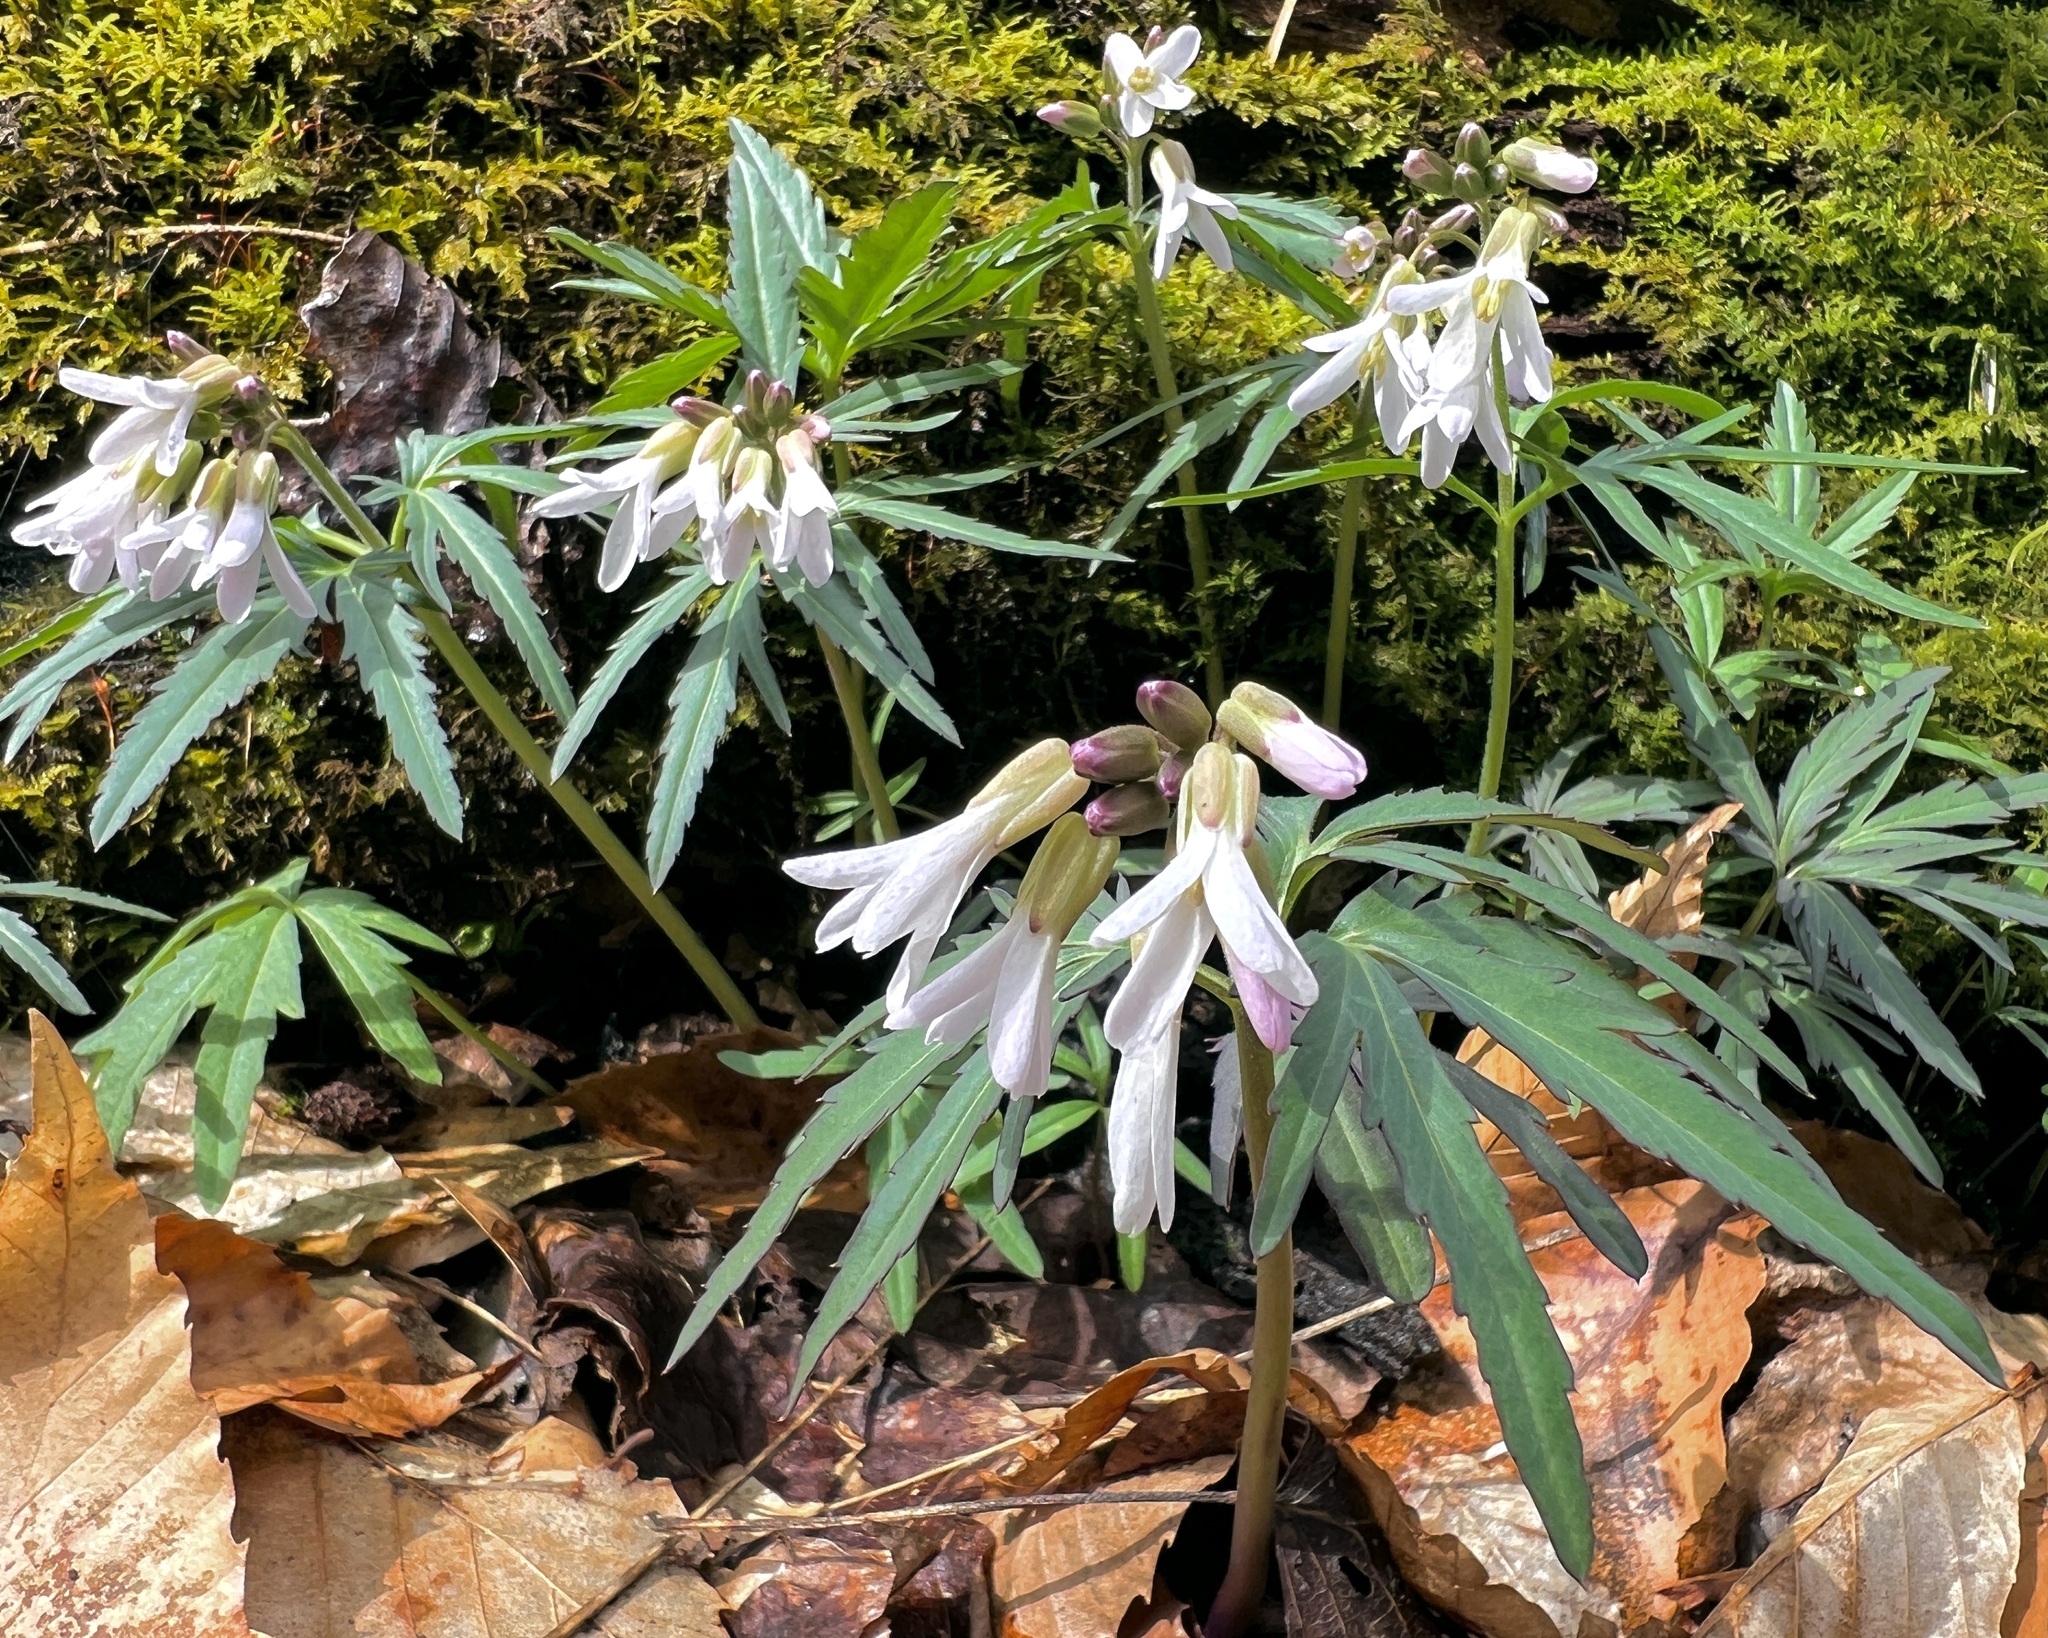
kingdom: Plantae
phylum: Tracheophyta
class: Magnoliopsida
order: Brassicales
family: Brassicaceae
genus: Cardamine
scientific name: Cardamine concatenata
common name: Cut-leaf toothcup
